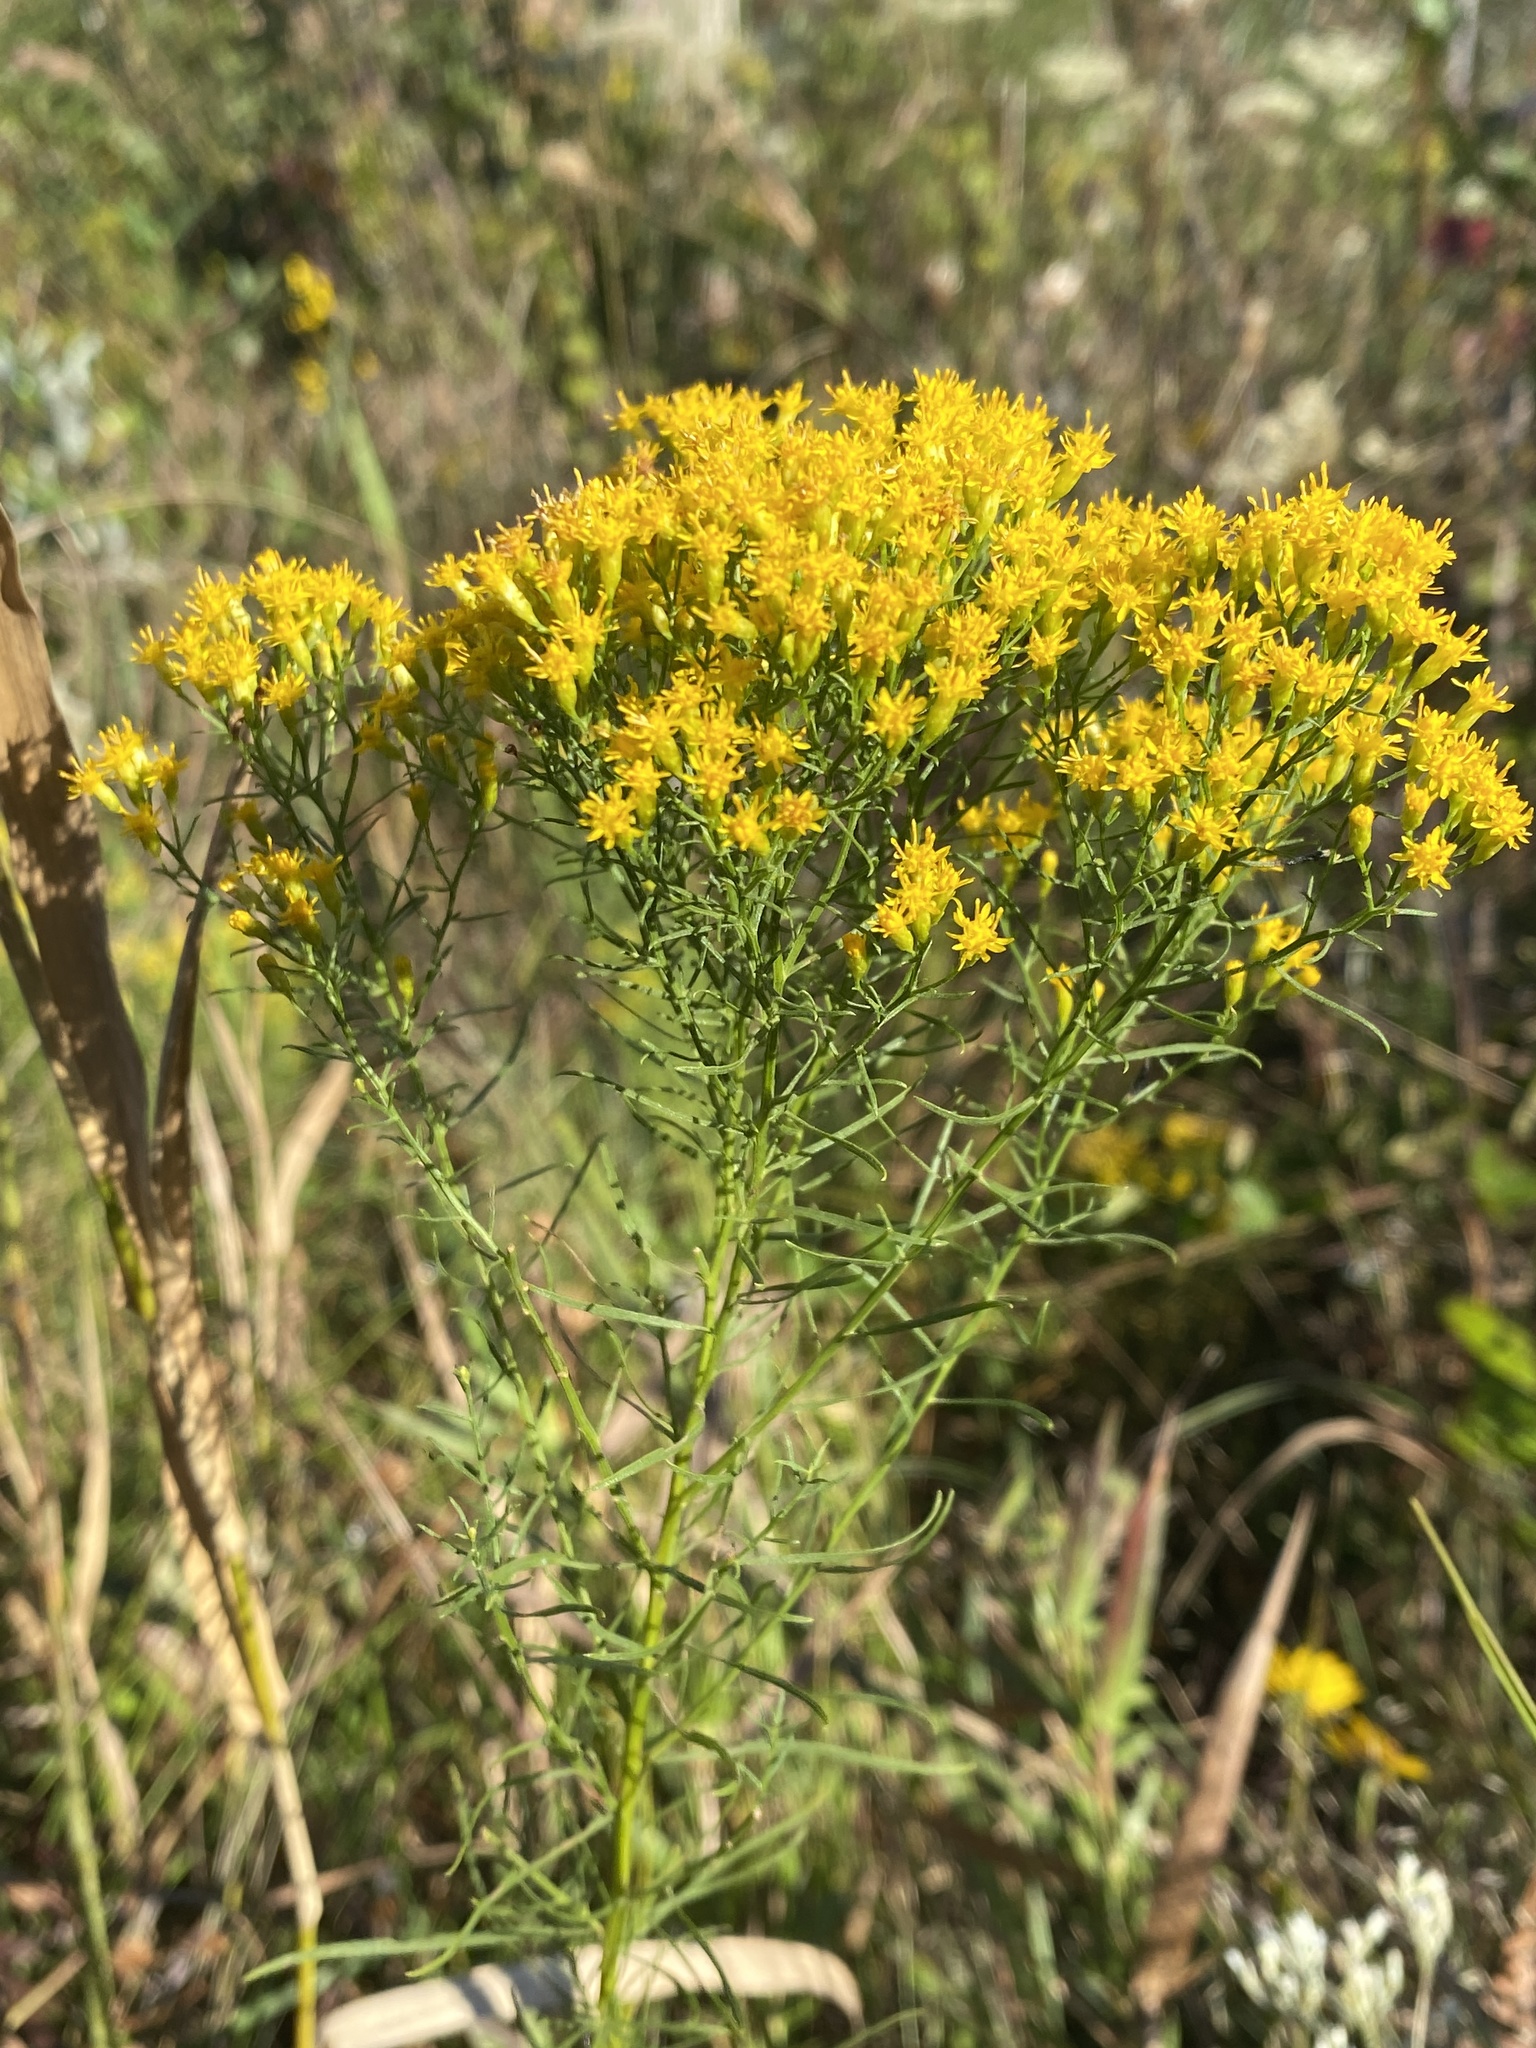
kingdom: Plantae
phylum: Tracheophyta
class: Magnoliopsida
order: Asterales
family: Asteraceae
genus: Euthamia
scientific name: Euthamia caroliniana
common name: Coastal plain goldentop
